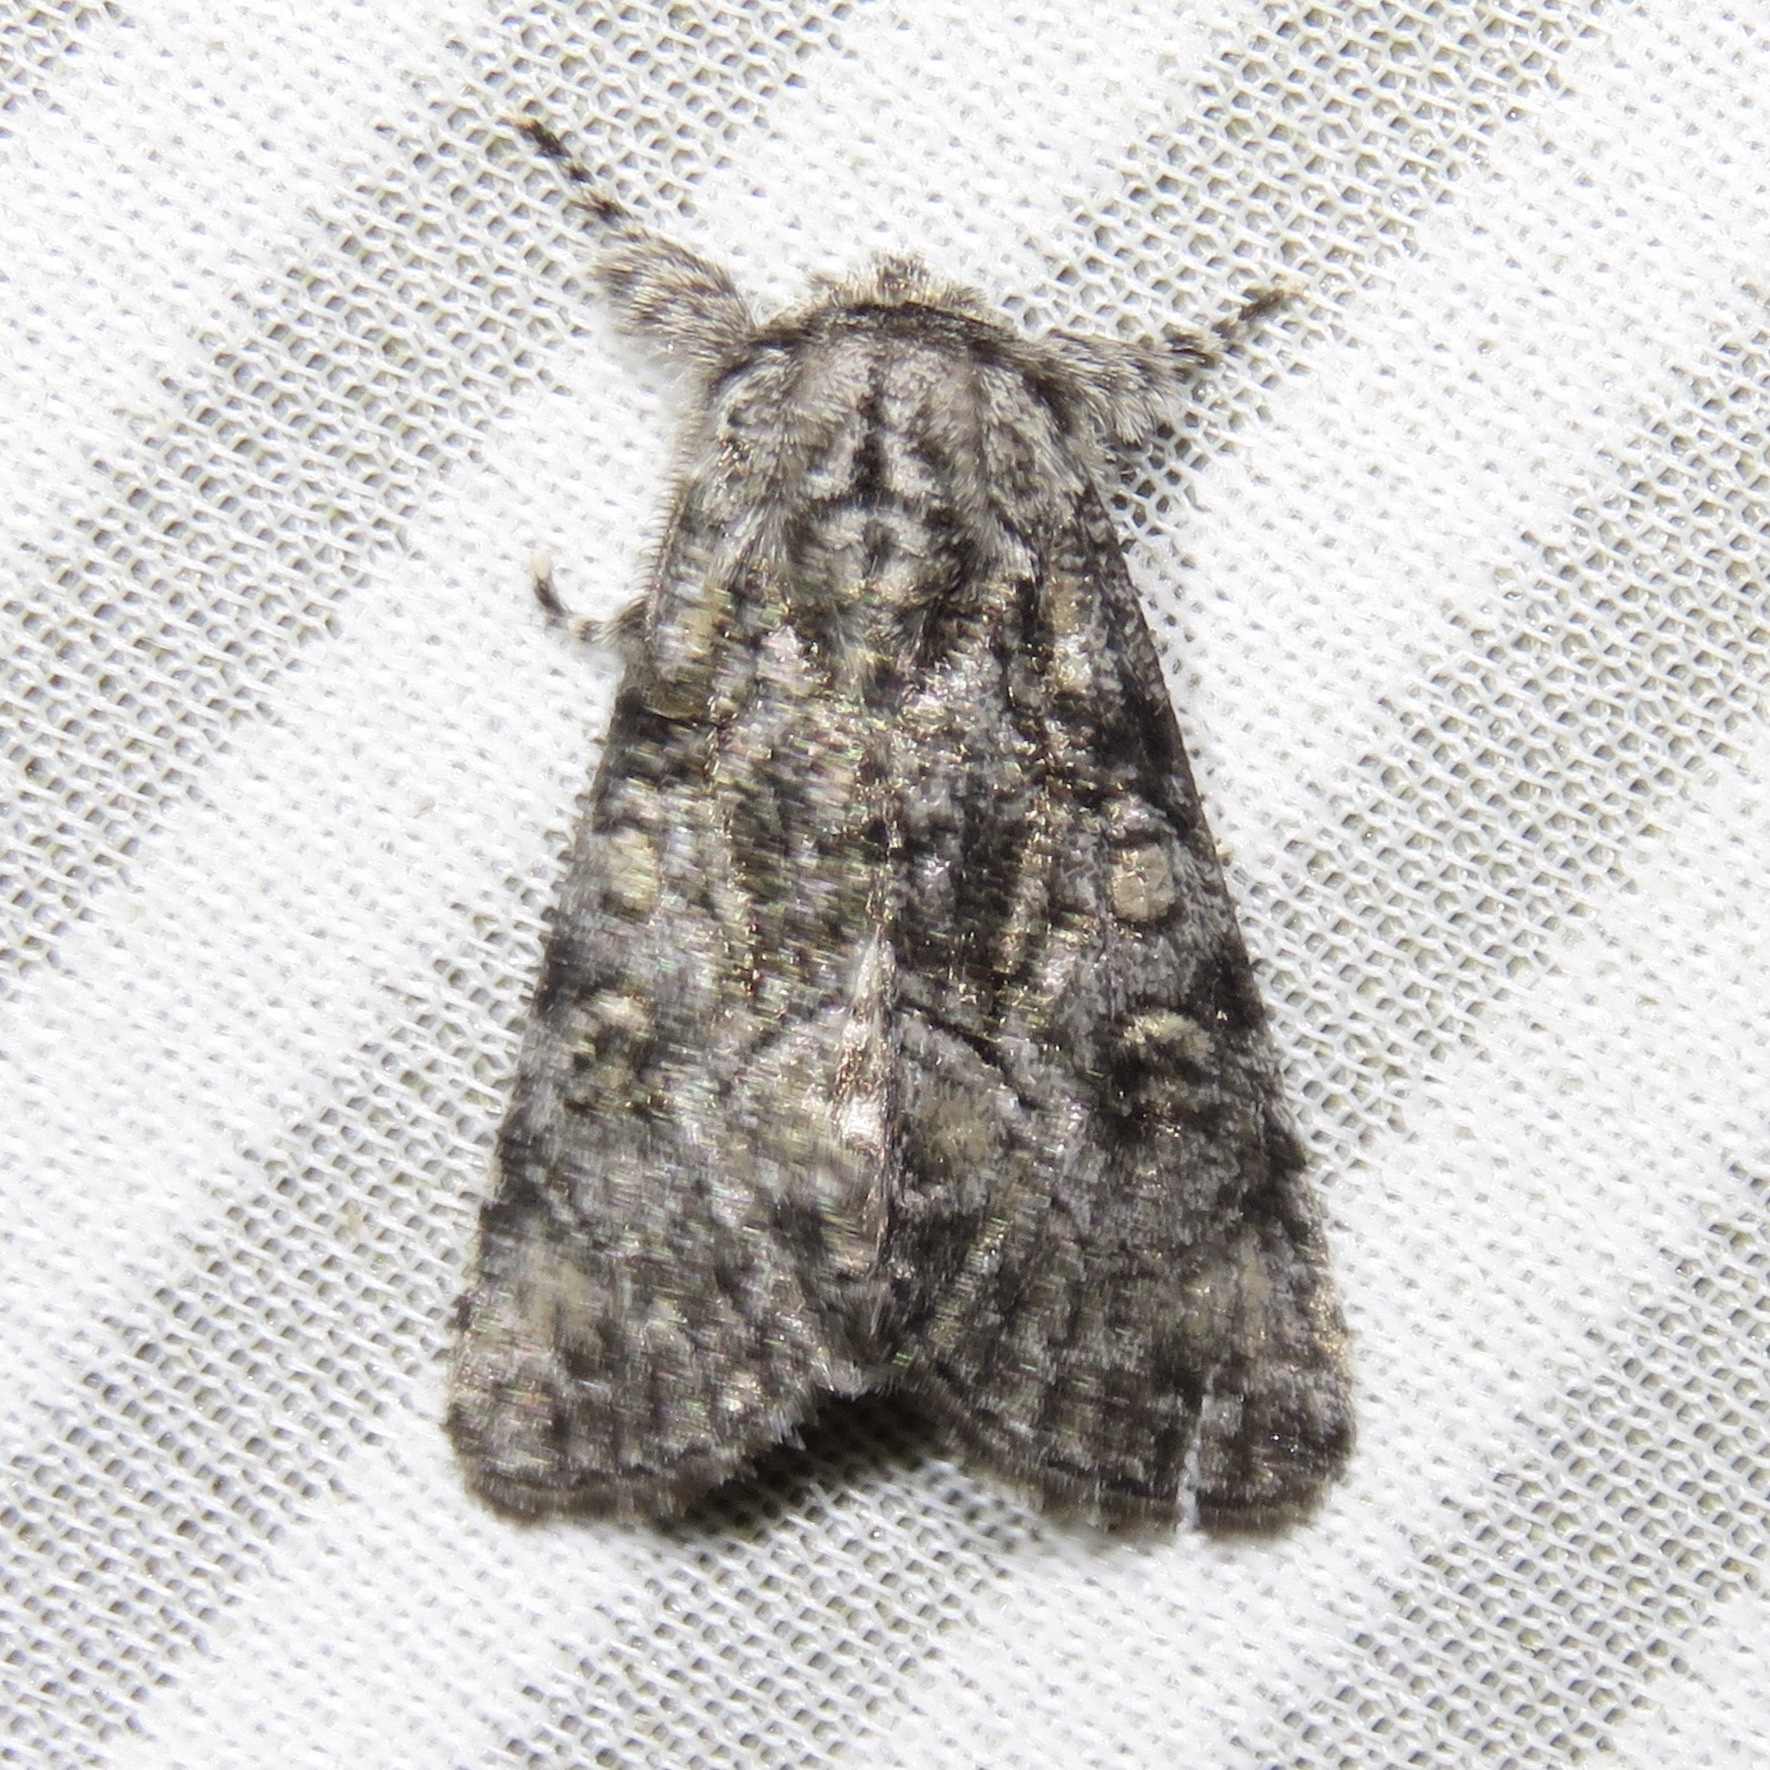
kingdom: Animalia
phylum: Arthropoda
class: Insecta
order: Lepidoptera
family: Noctuidae
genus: Raphia
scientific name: Raphia frater
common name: Brother
